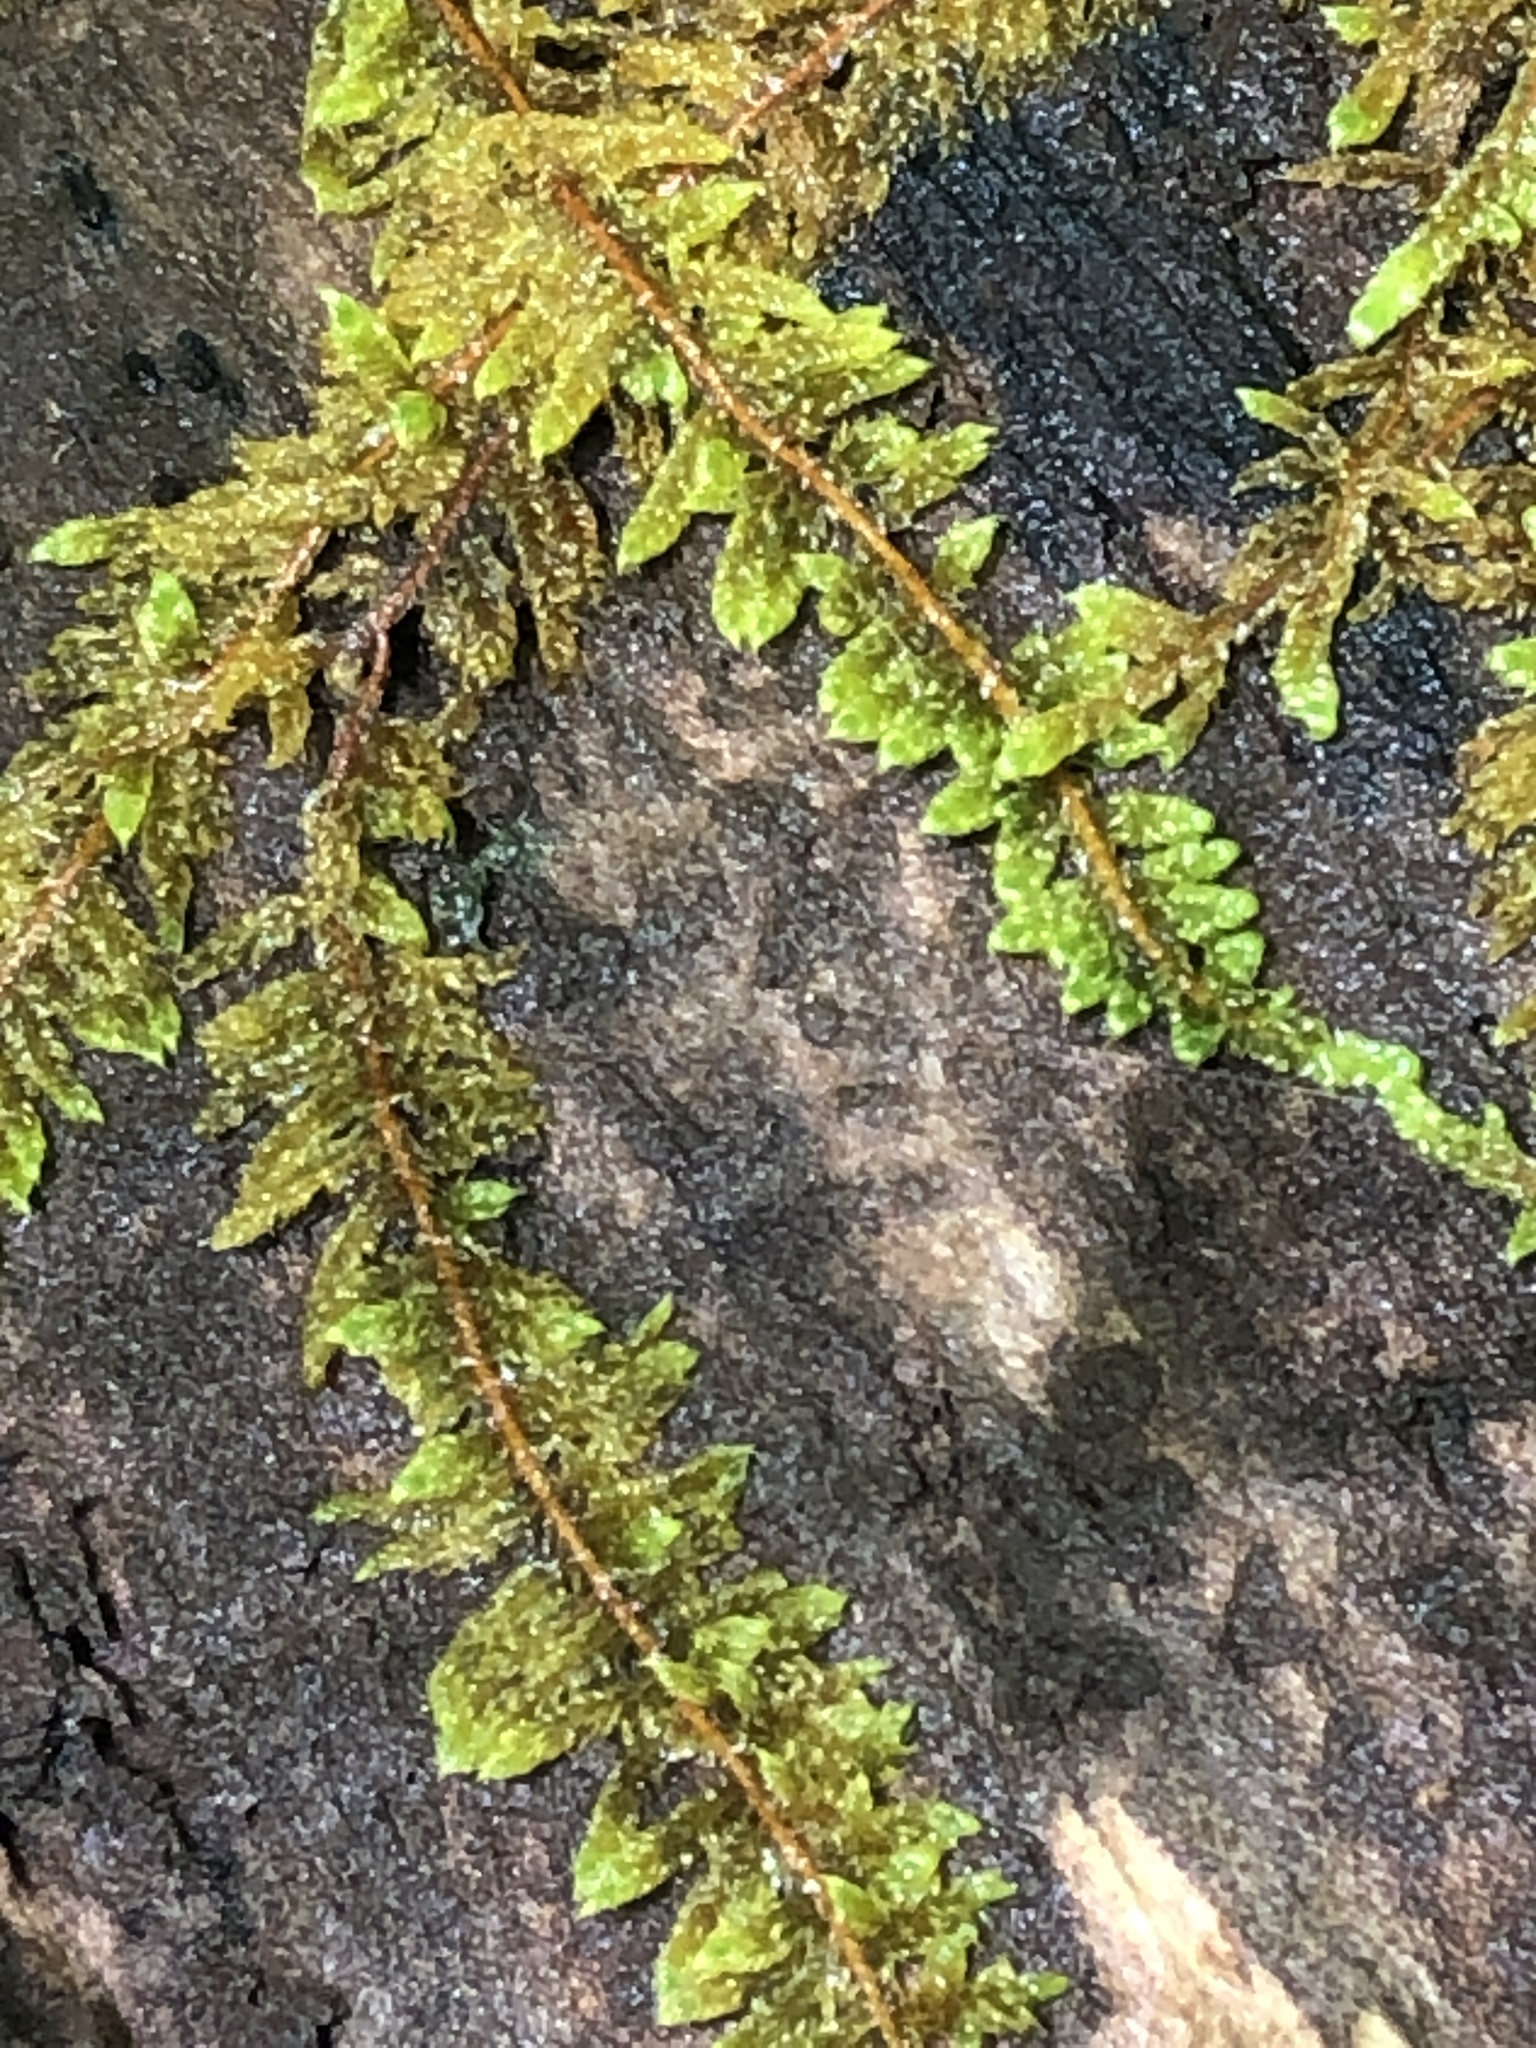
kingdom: Plantae
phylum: Bryophyta
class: Bryopsida
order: Hypnales
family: Callicladiaceae
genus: Callicladium
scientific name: Callicladium imponens
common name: Brocade moss
